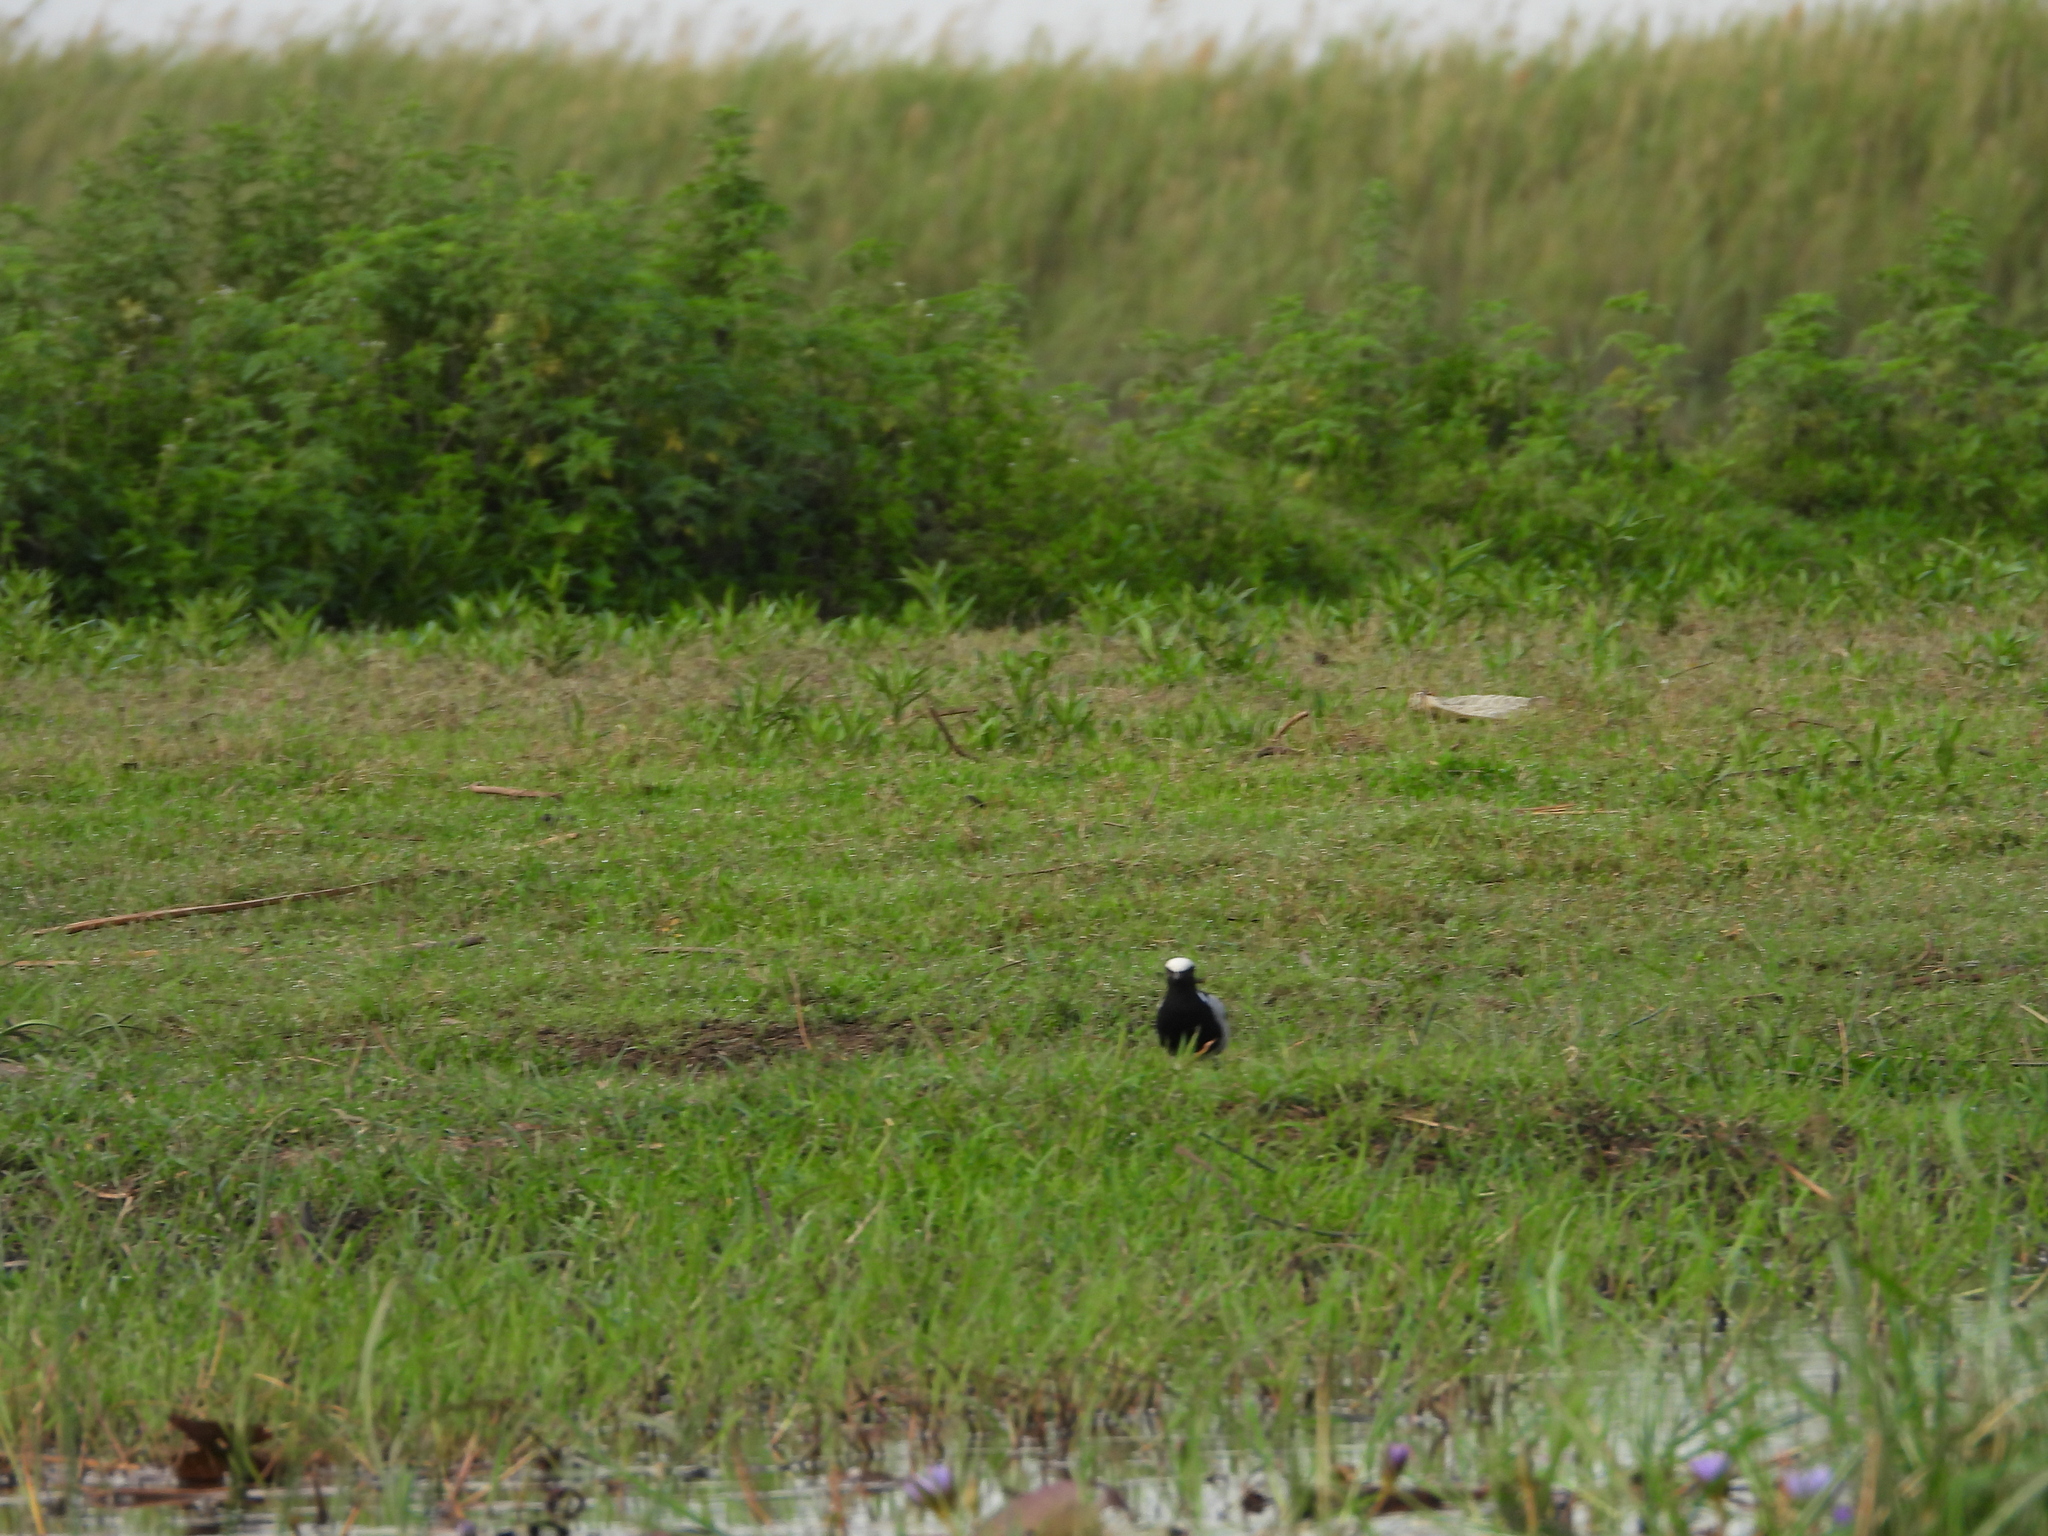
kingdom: Animalia
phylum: Chordata
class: Aves
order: Charadriiformes
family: Charadriidae
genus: Vanellus
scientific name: Vanellus armatus
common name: Blacksmith lapwing
